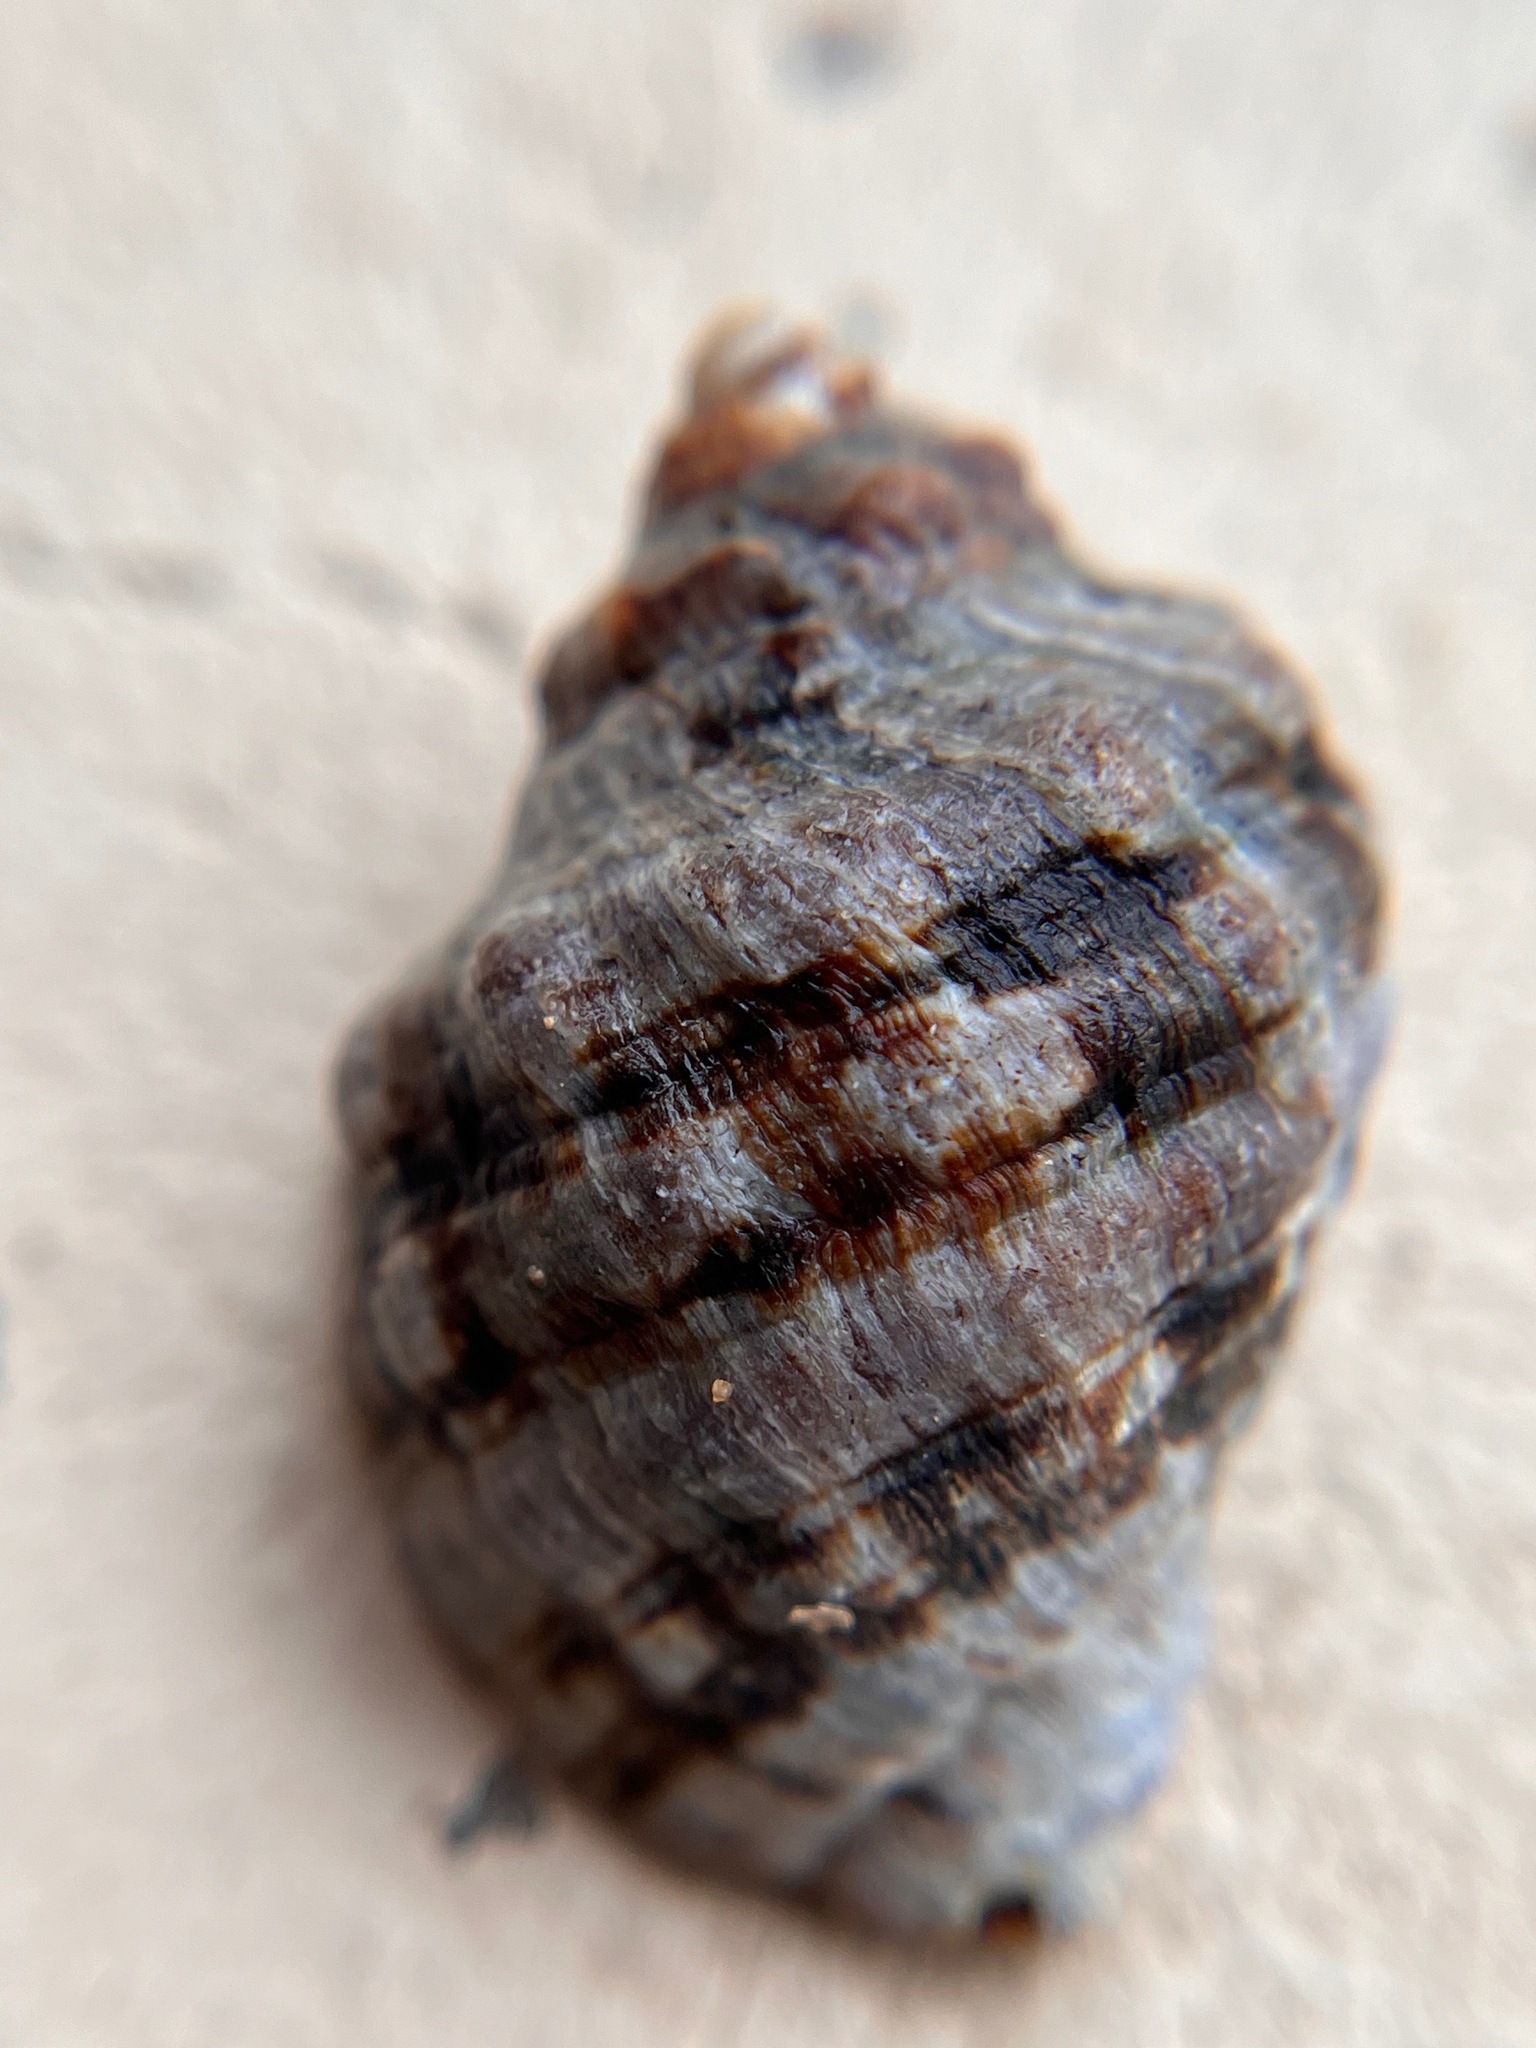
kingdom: Animalia
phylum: Mollusca
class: Gastropoda
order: Neogastropoda
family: Muricidae
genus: Mexacanthina
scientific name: Mexacanthina lugubris
